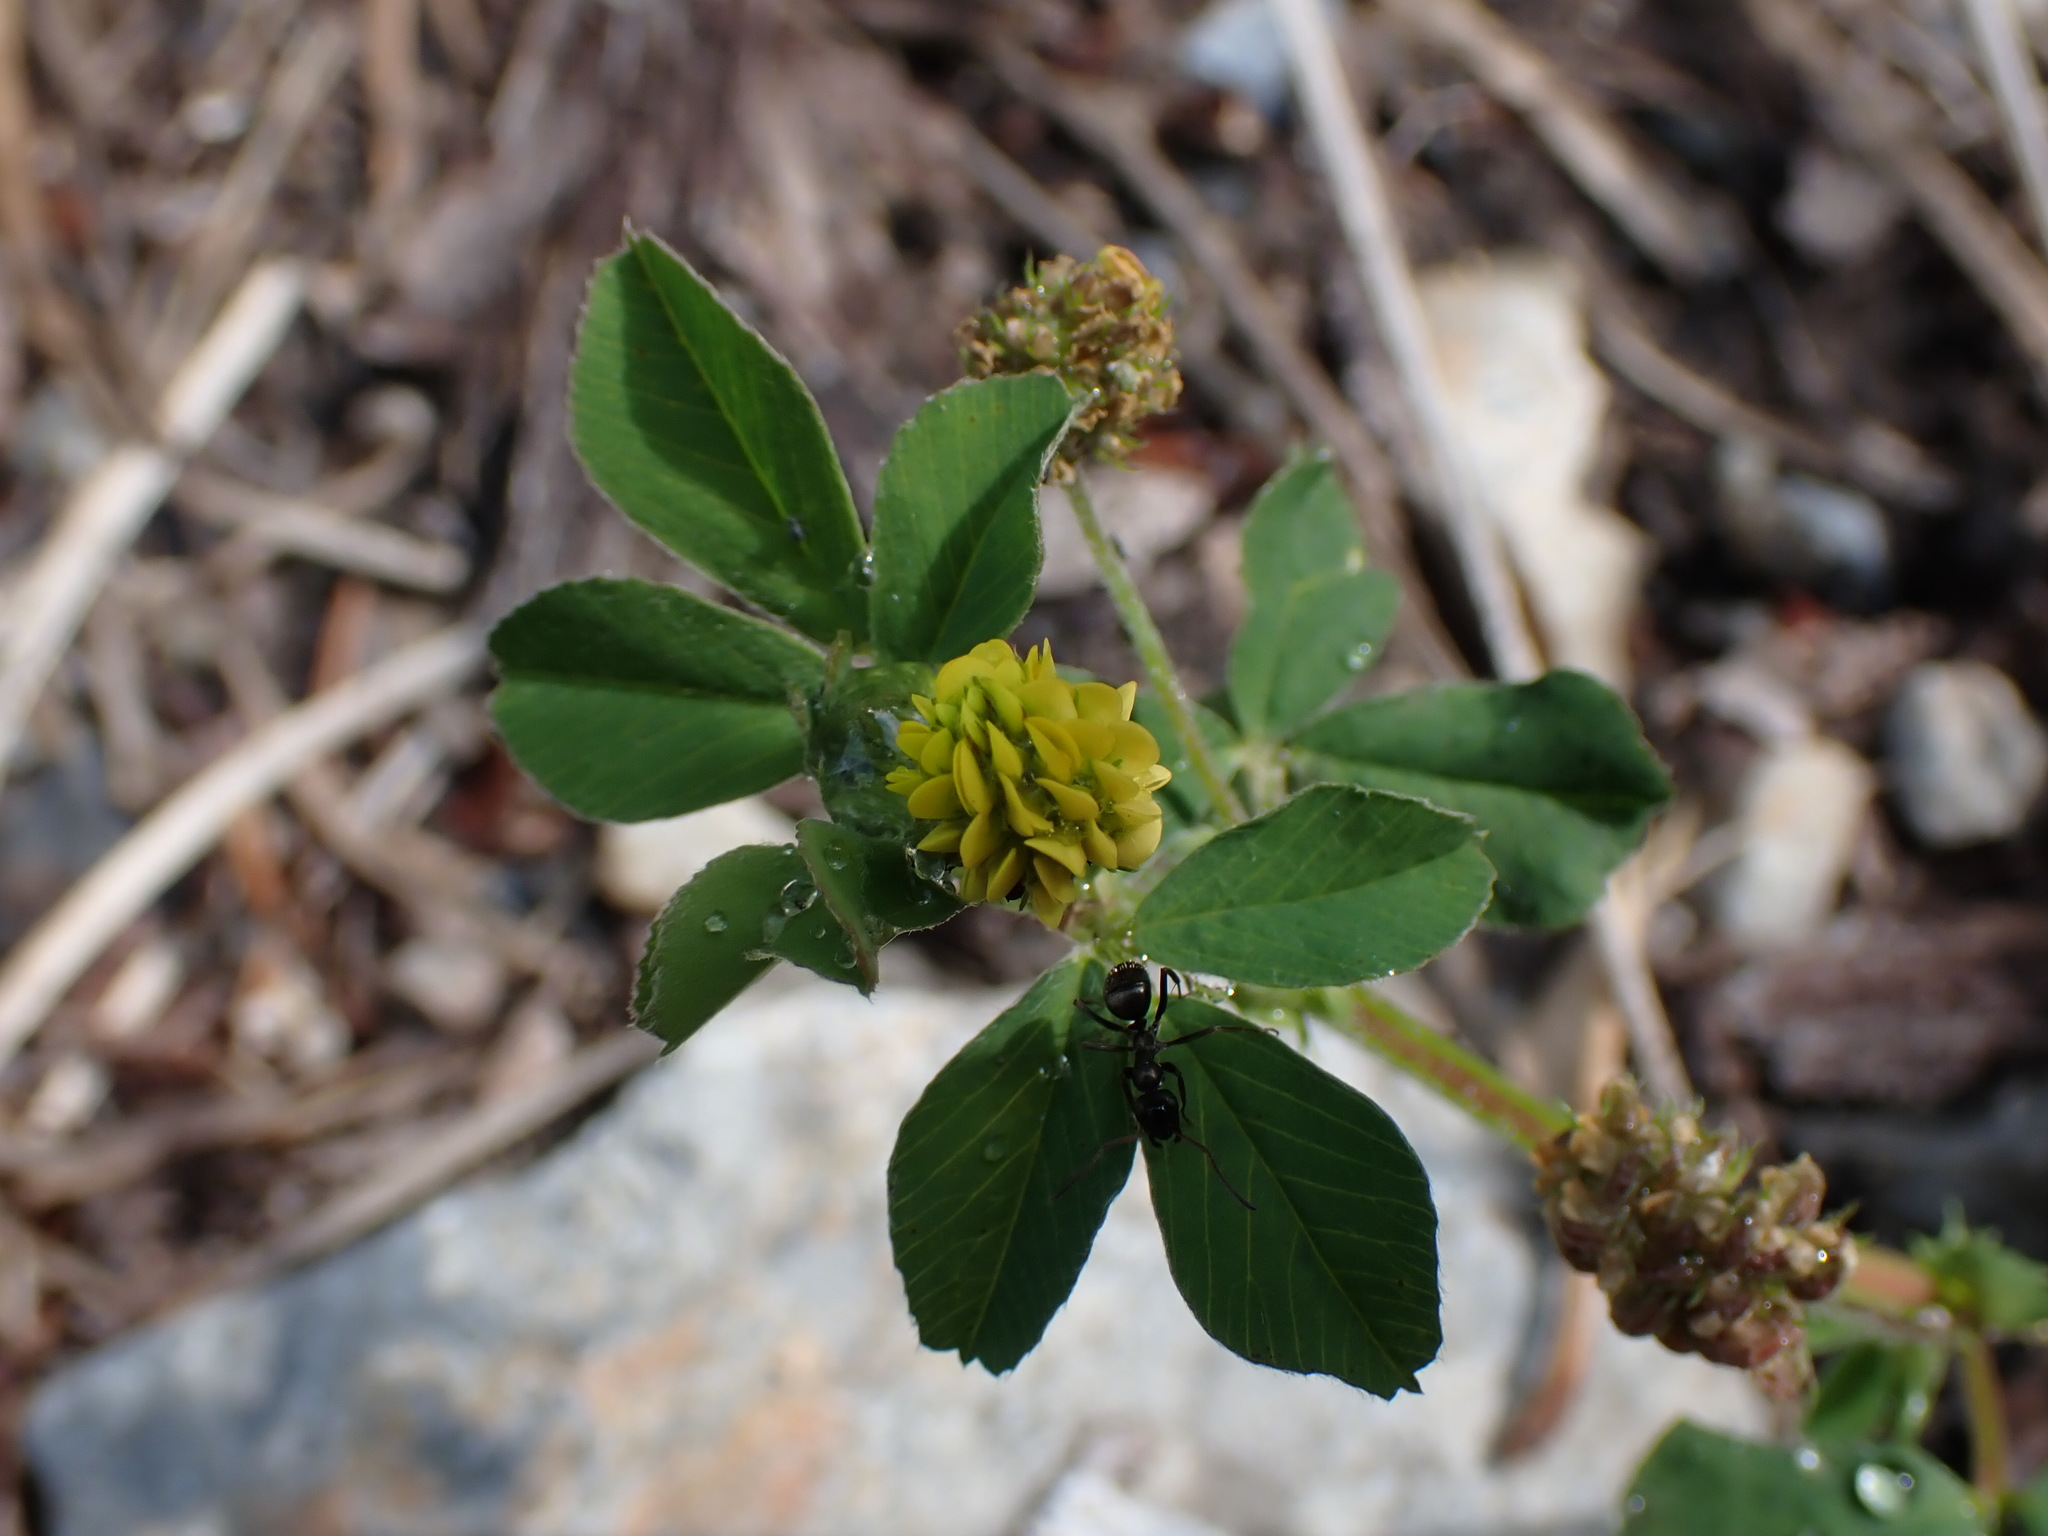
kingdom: Plantae
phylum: Tracheophyta
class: Magnoliopsida
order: Fabales
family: Fabaceae
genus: Medicago
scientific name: Medicago lupulina
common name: Black medick
